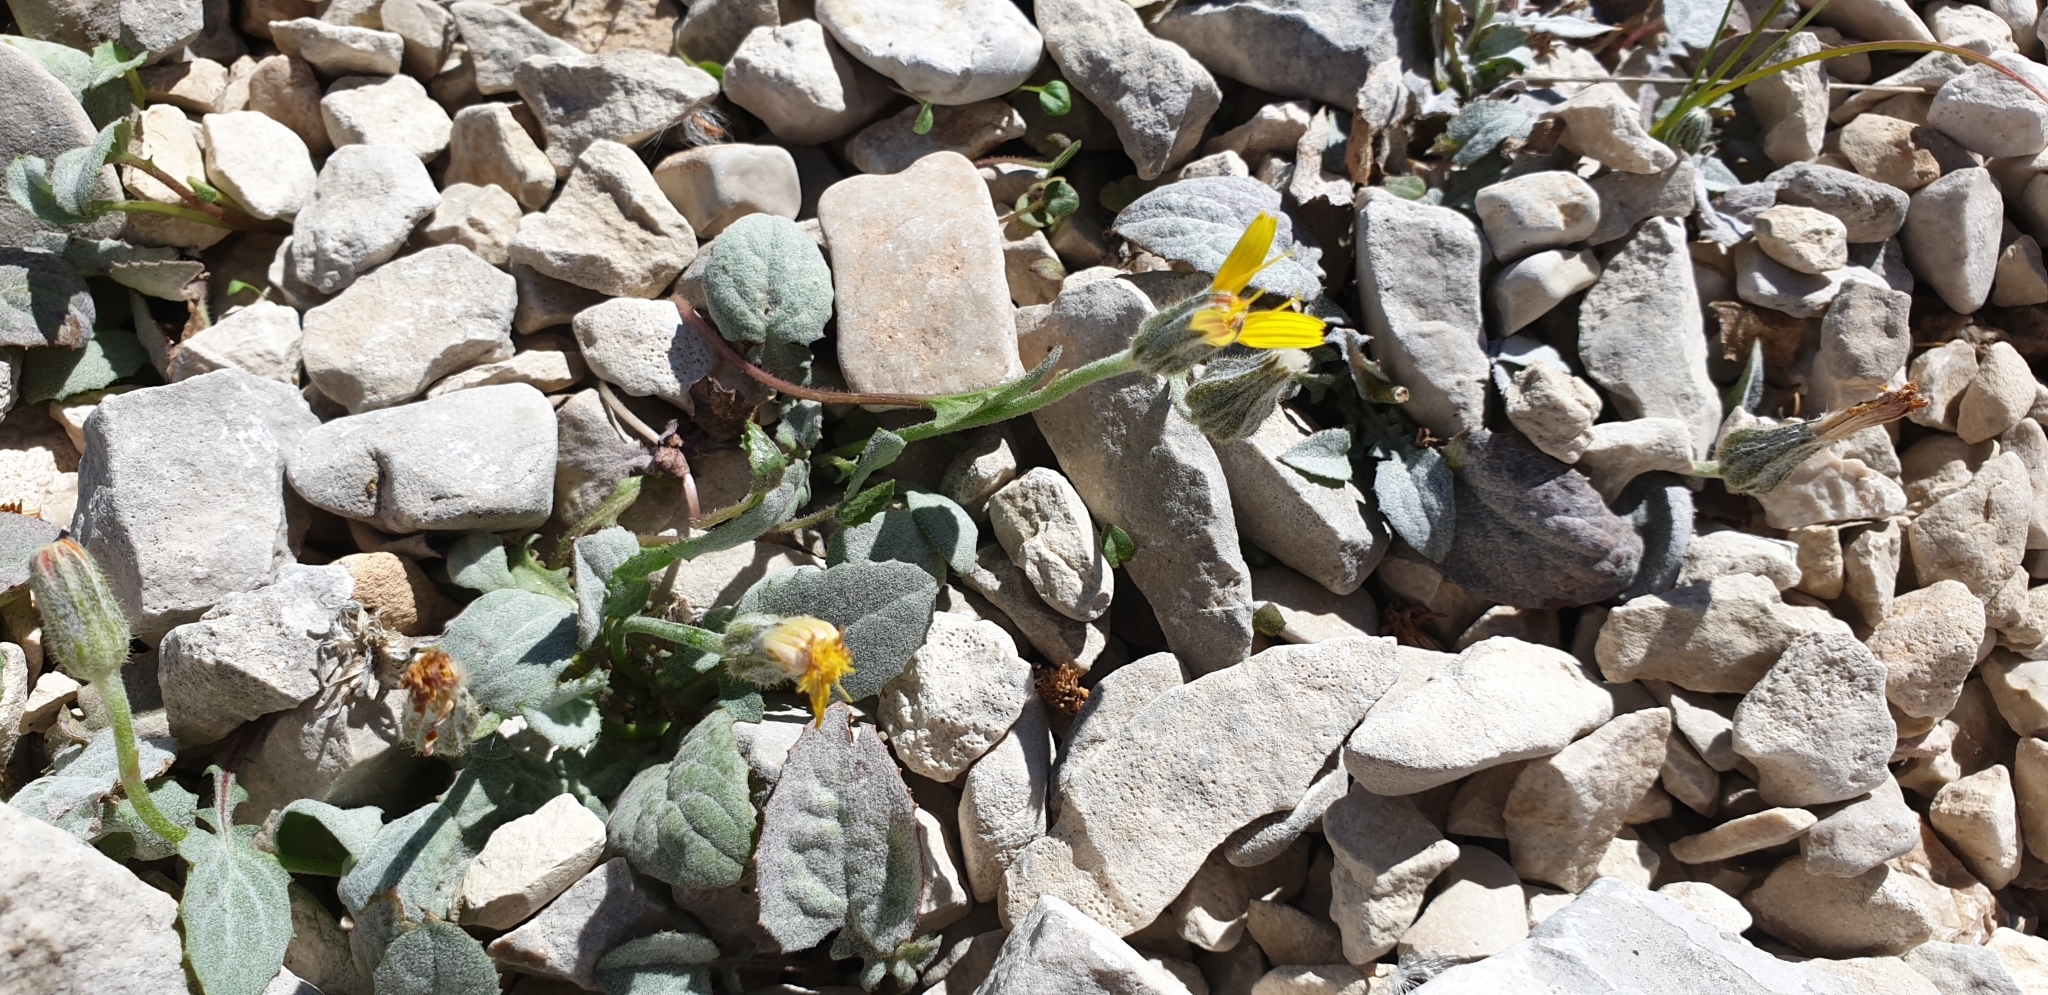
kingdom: Plantae
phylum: Tracheophyta
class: Magnoliopsida
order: Asterales
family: Asteraceae
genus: Crepis
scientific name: Crepis pygmaea
